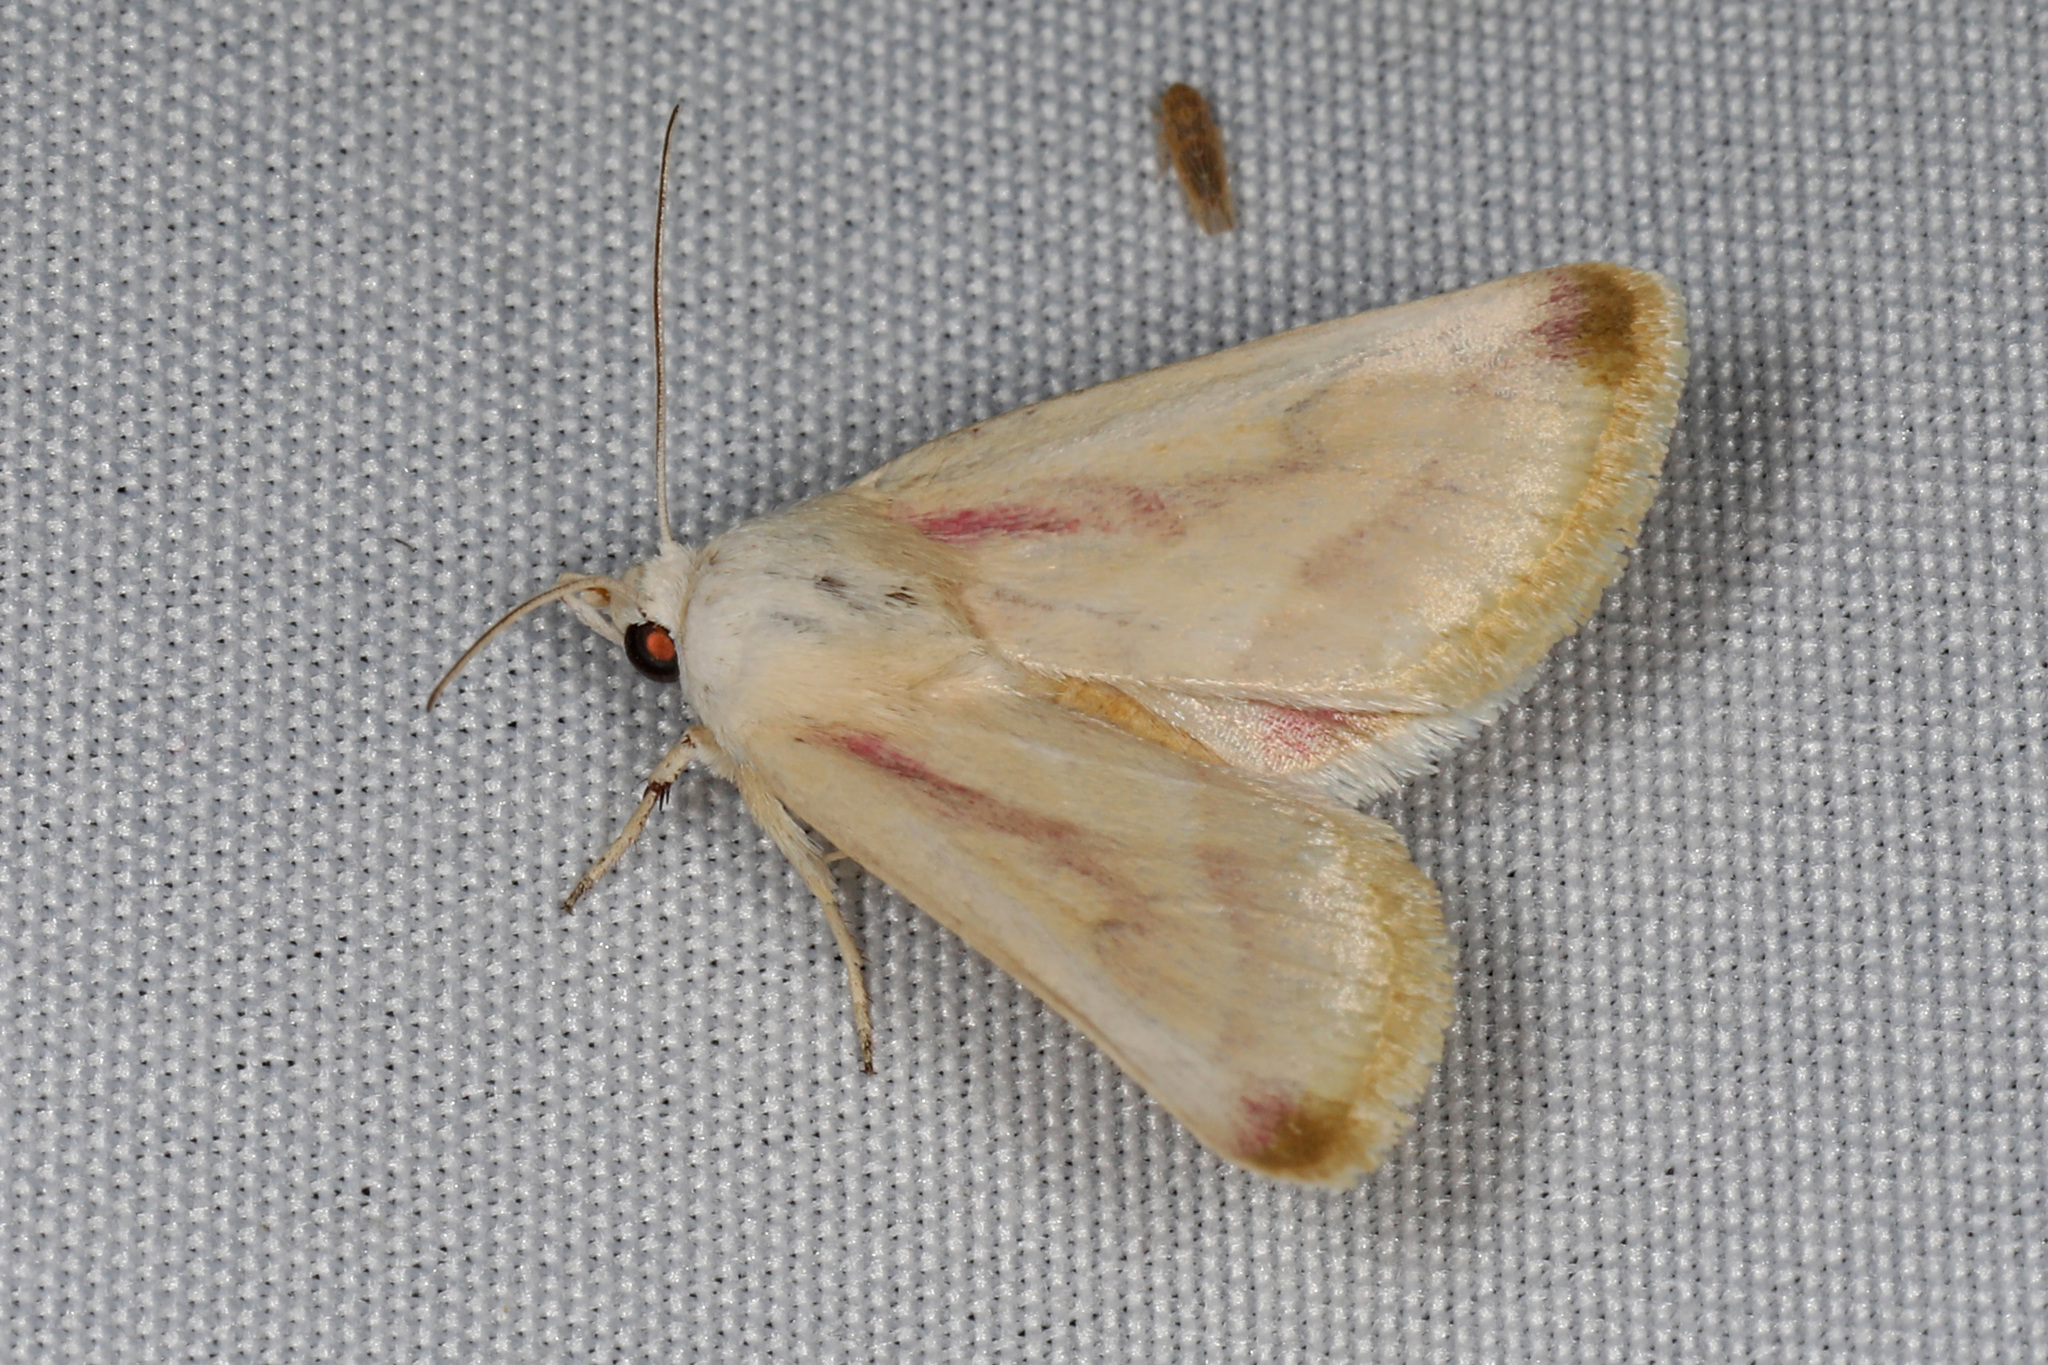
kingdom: Animalia
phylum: Arthropoda
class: Insecta
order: Lepidoptera
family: Noctuidae
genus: Schinia
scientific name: Schinia niveicosta
